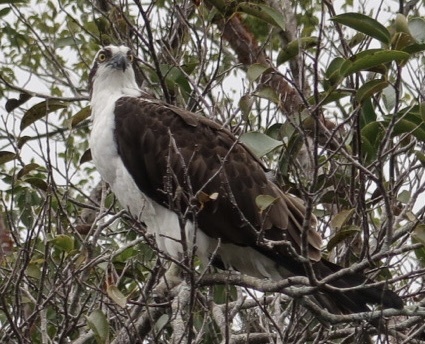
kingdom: Animalia
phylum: Chordata
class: Aves
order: Accipitriformes
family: Pandionidae
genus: Pandion
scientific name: Pandion haliaetus
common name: Osprey
